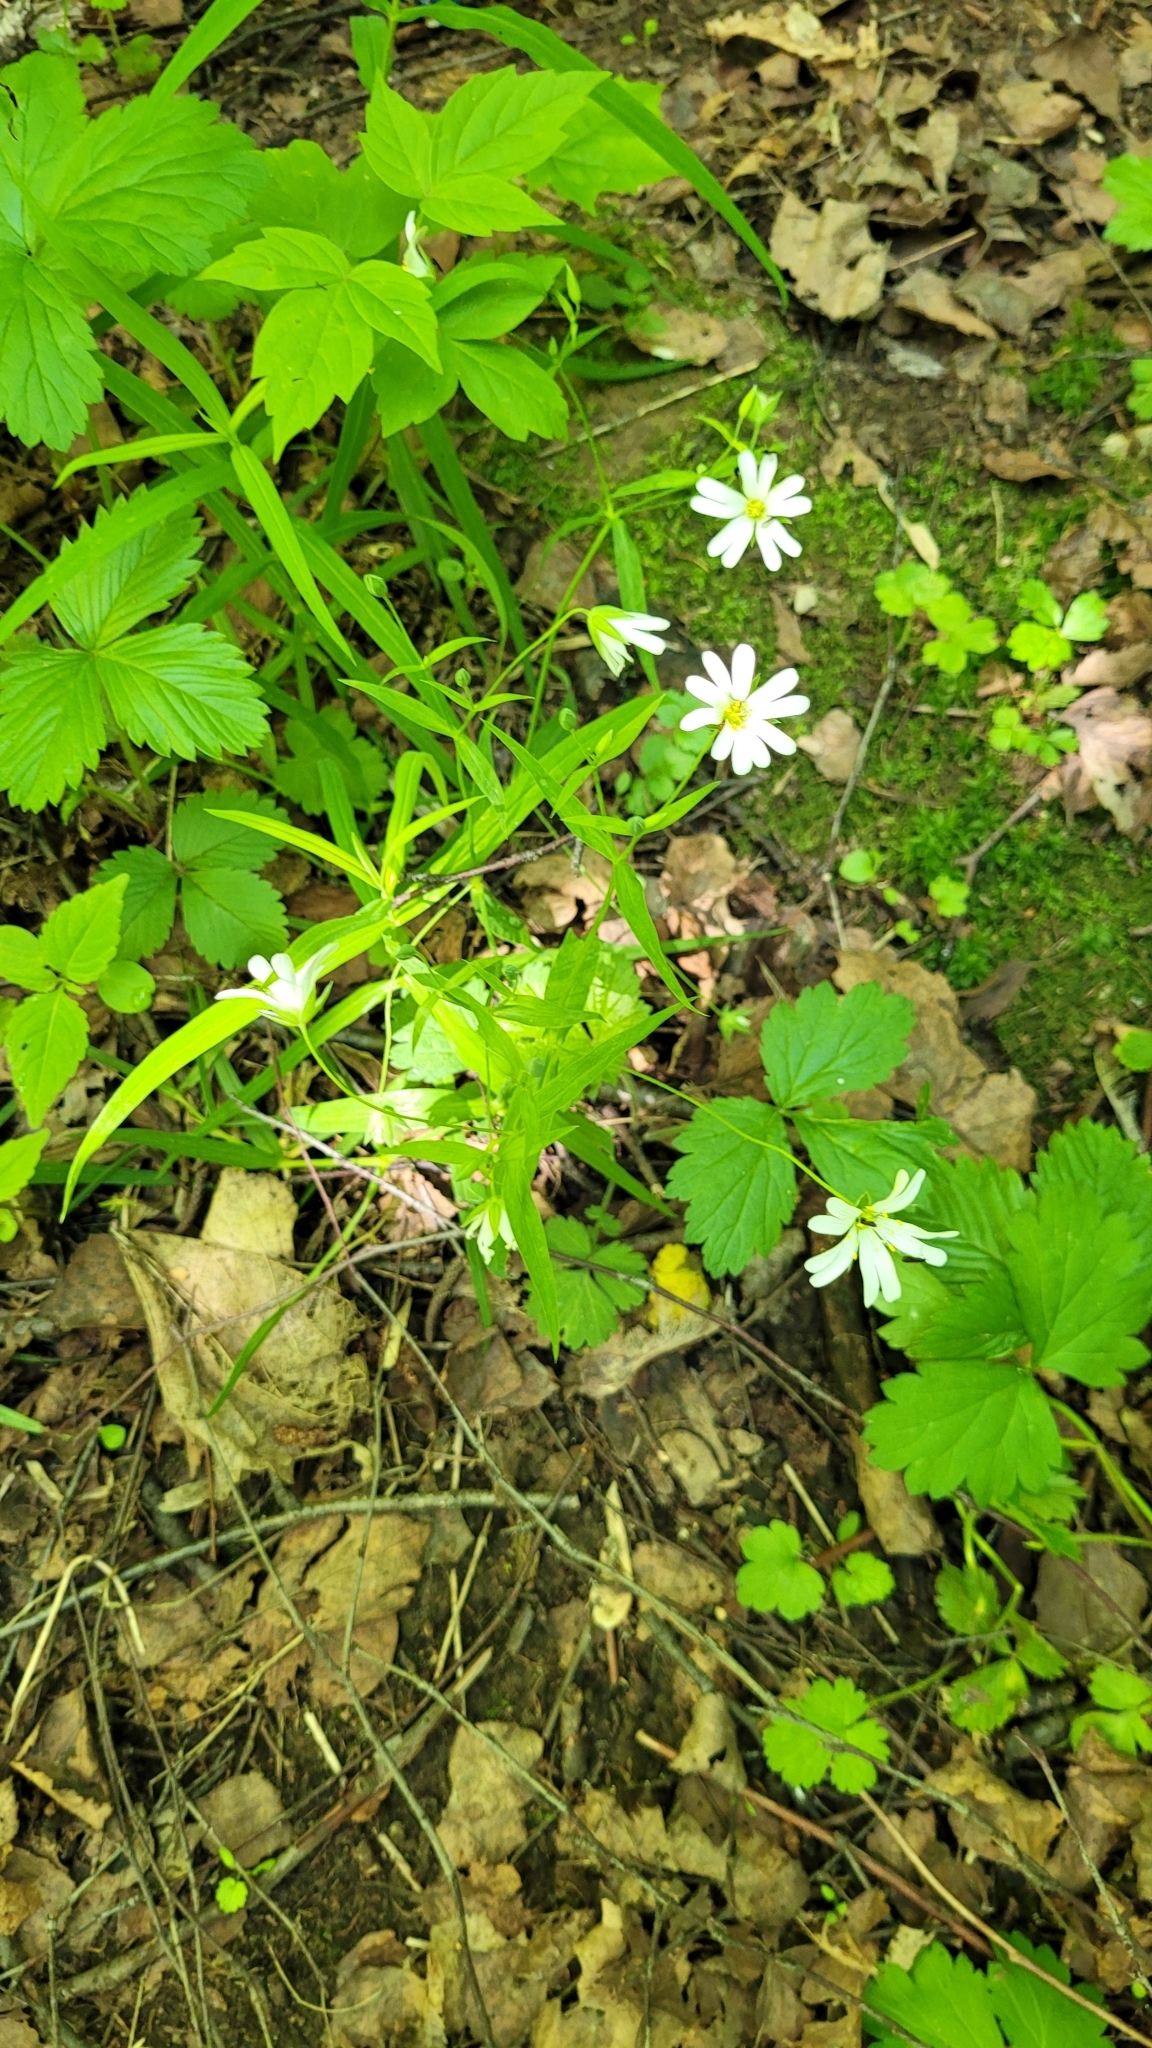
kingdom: Plantae
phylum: Tracheophyta
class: Magnoliopsida
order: Caryophyllales
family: Caryophyllaceae
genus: Rabelera
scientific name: Rabelera holostea
